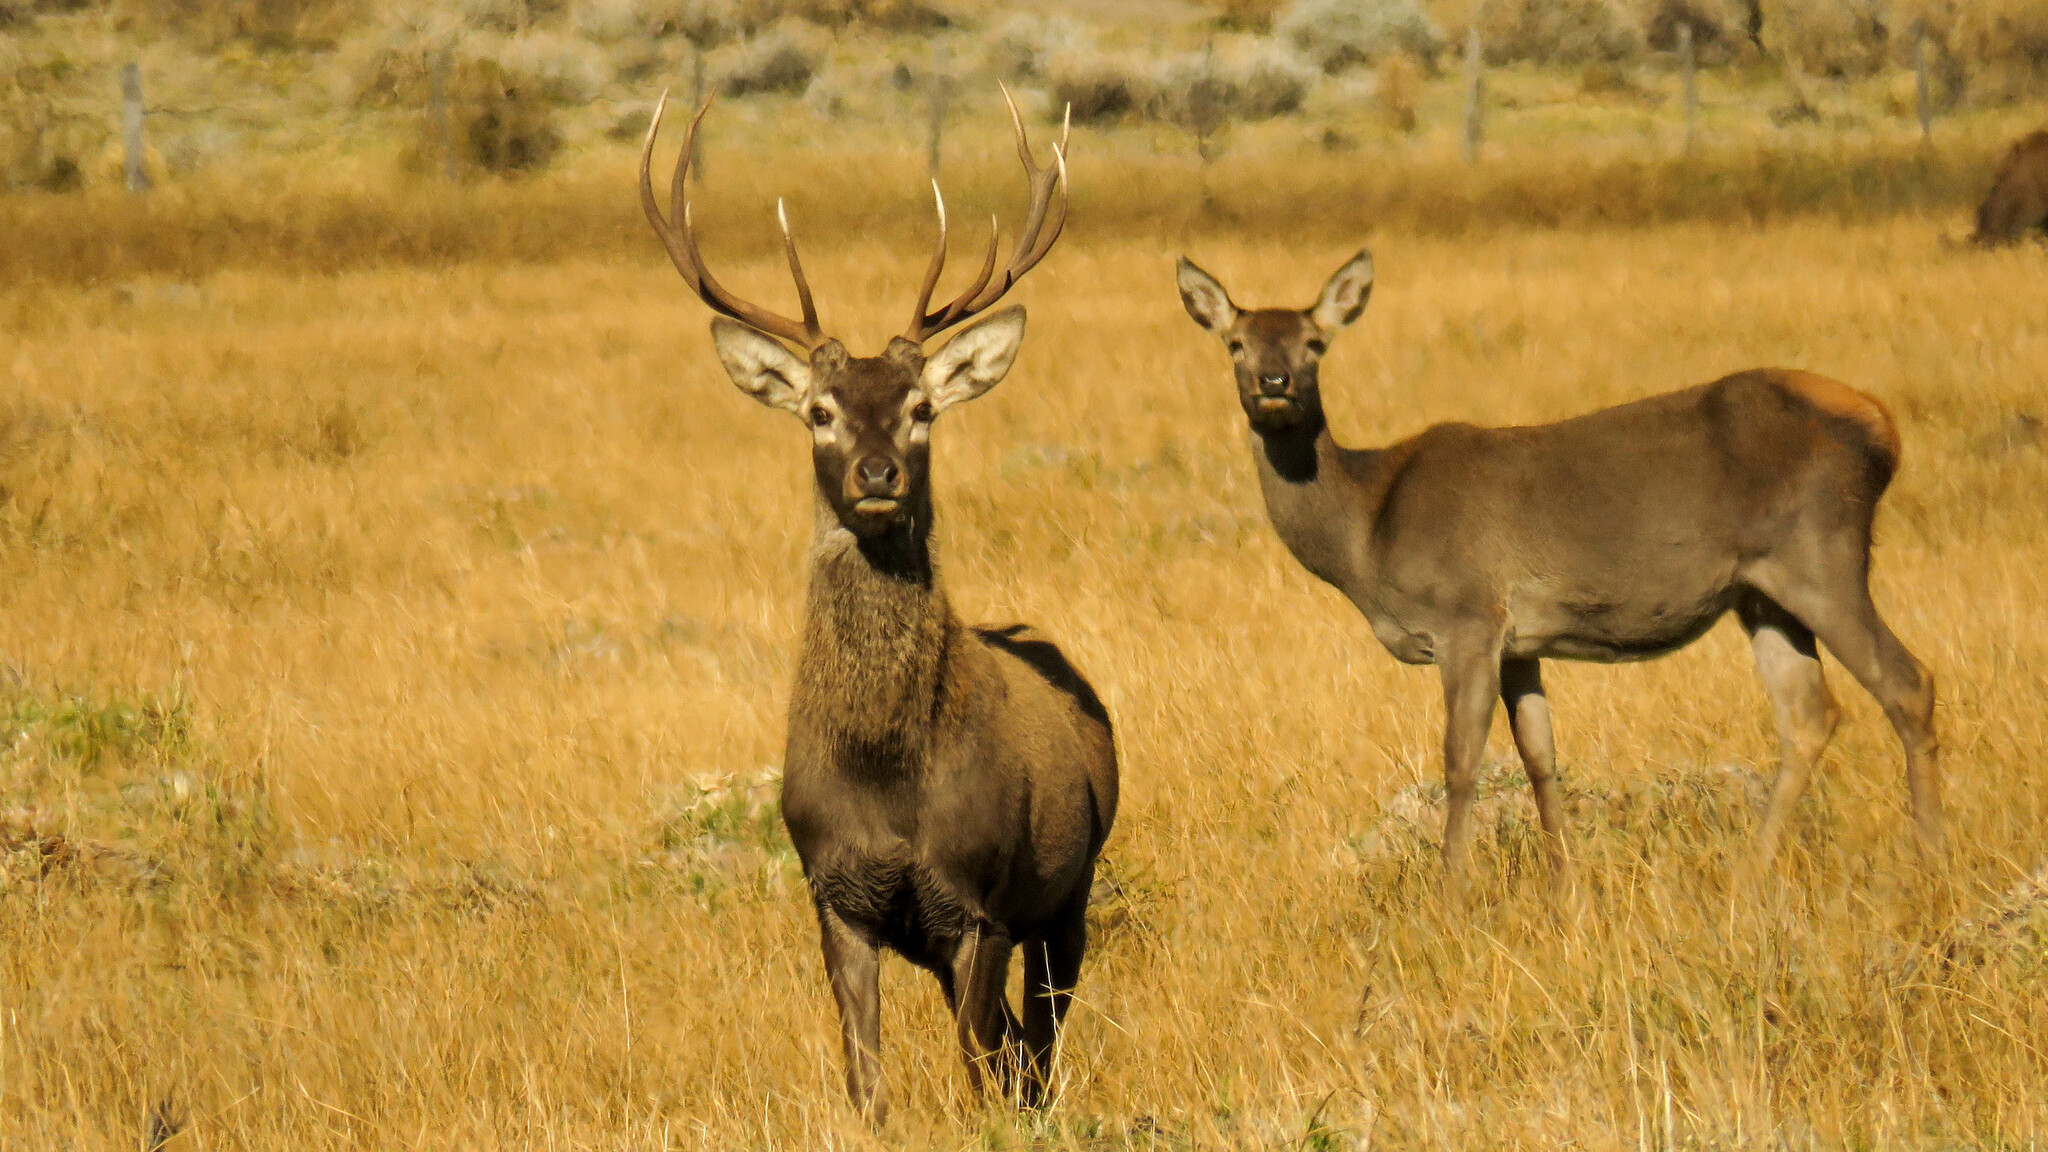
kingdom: Animalia
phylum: Chordata
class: Mammalia
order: Artiodactyla
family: Cervidae
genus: Cervus
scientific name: Cervus elaphus
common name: Red deer
